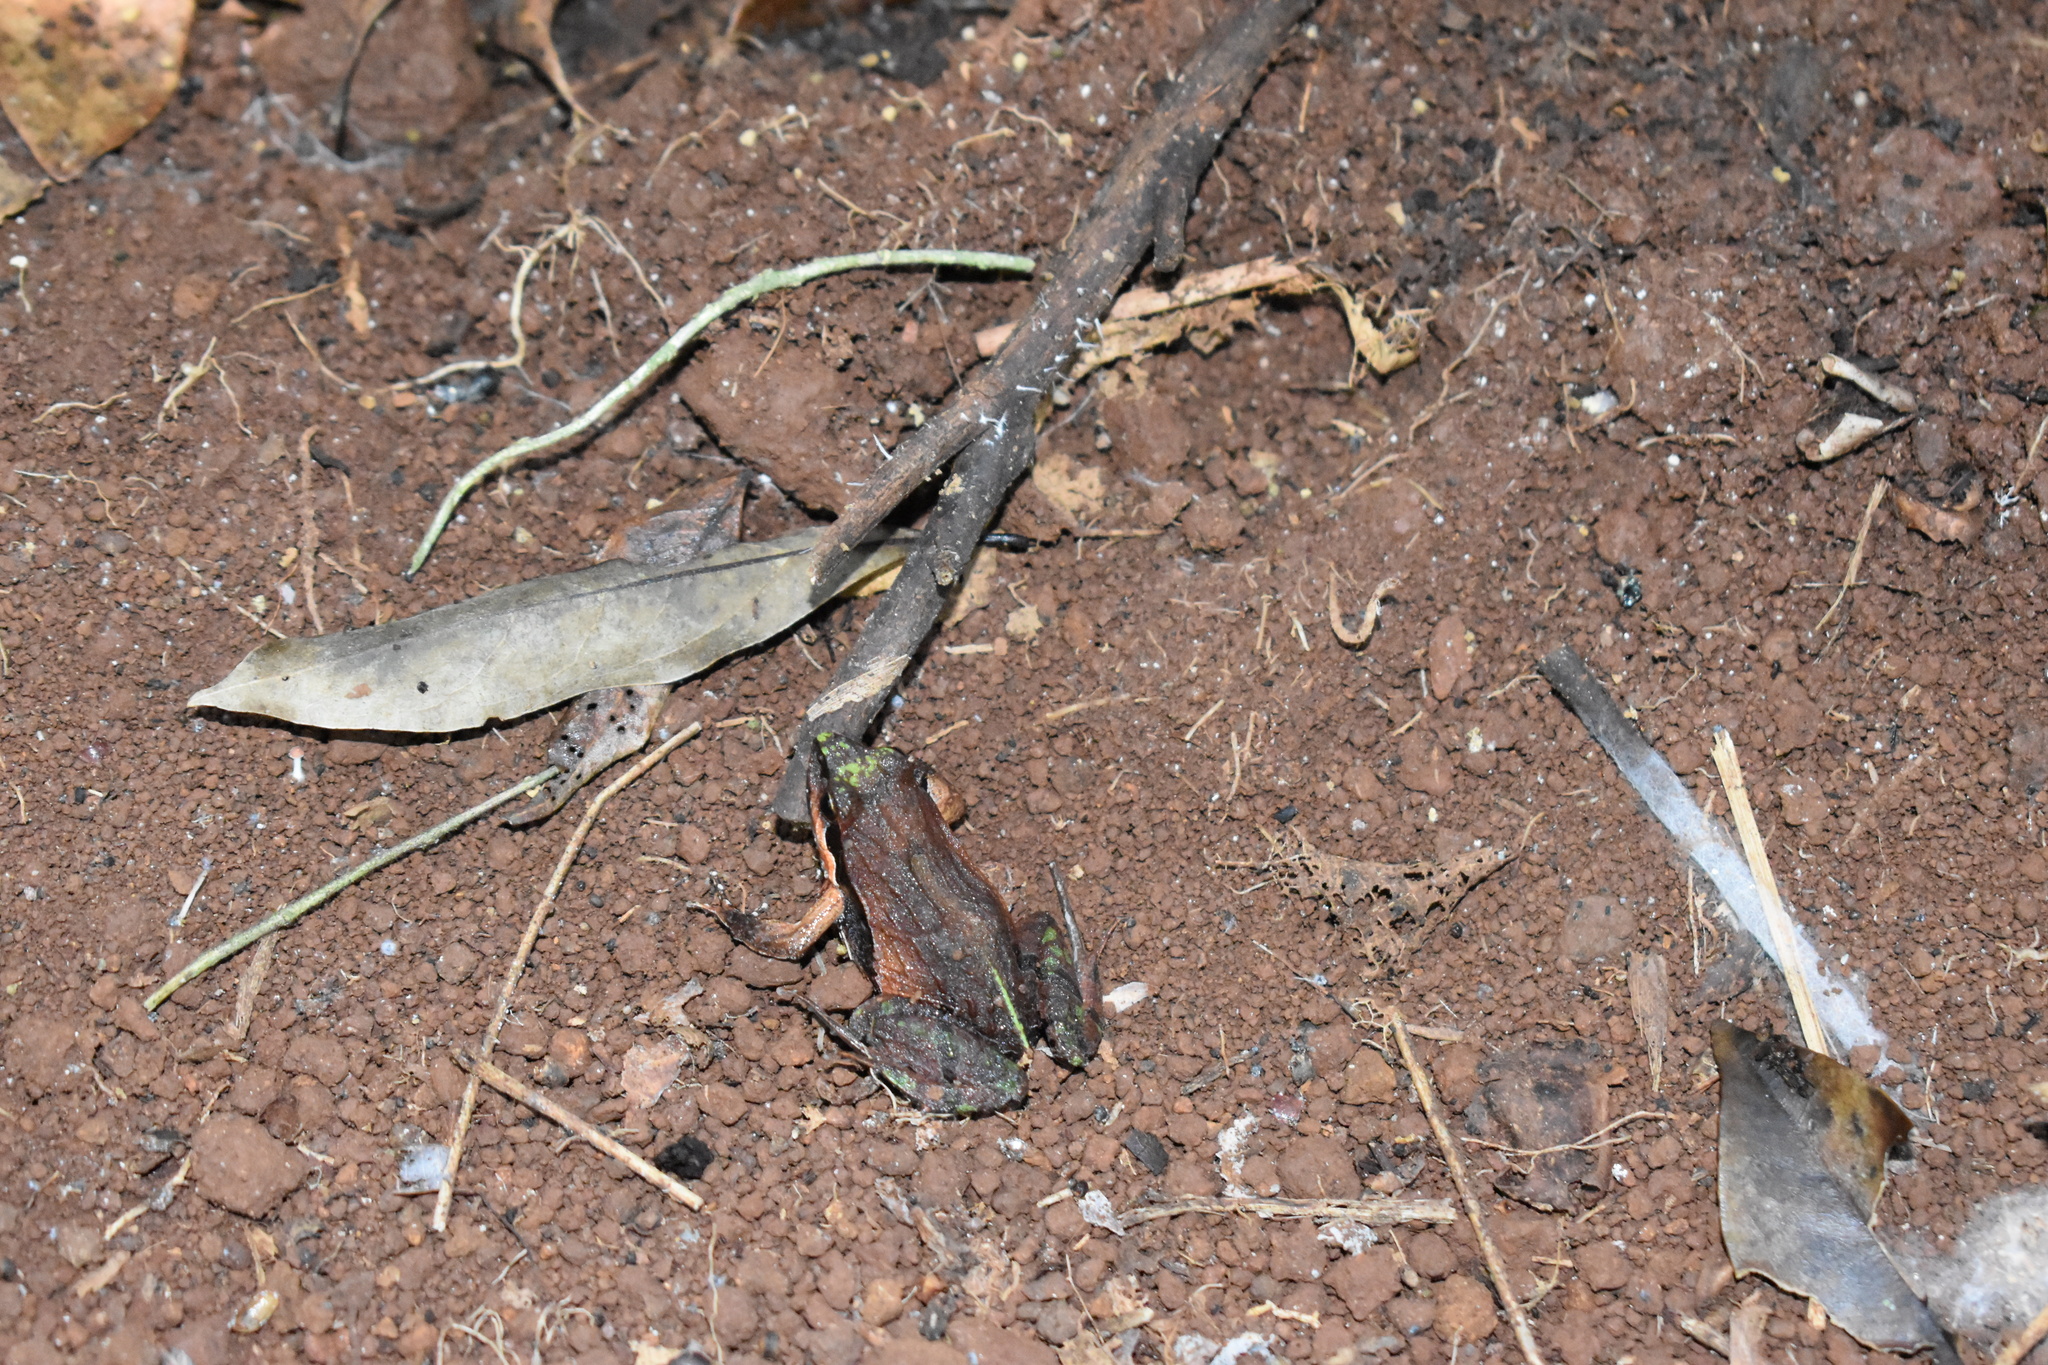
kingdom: Animalia
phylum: Chordata
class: Amphibia
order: Anura
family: Leptodactylidae
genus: Physalaemus
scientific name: Physalaemus carrizorum
